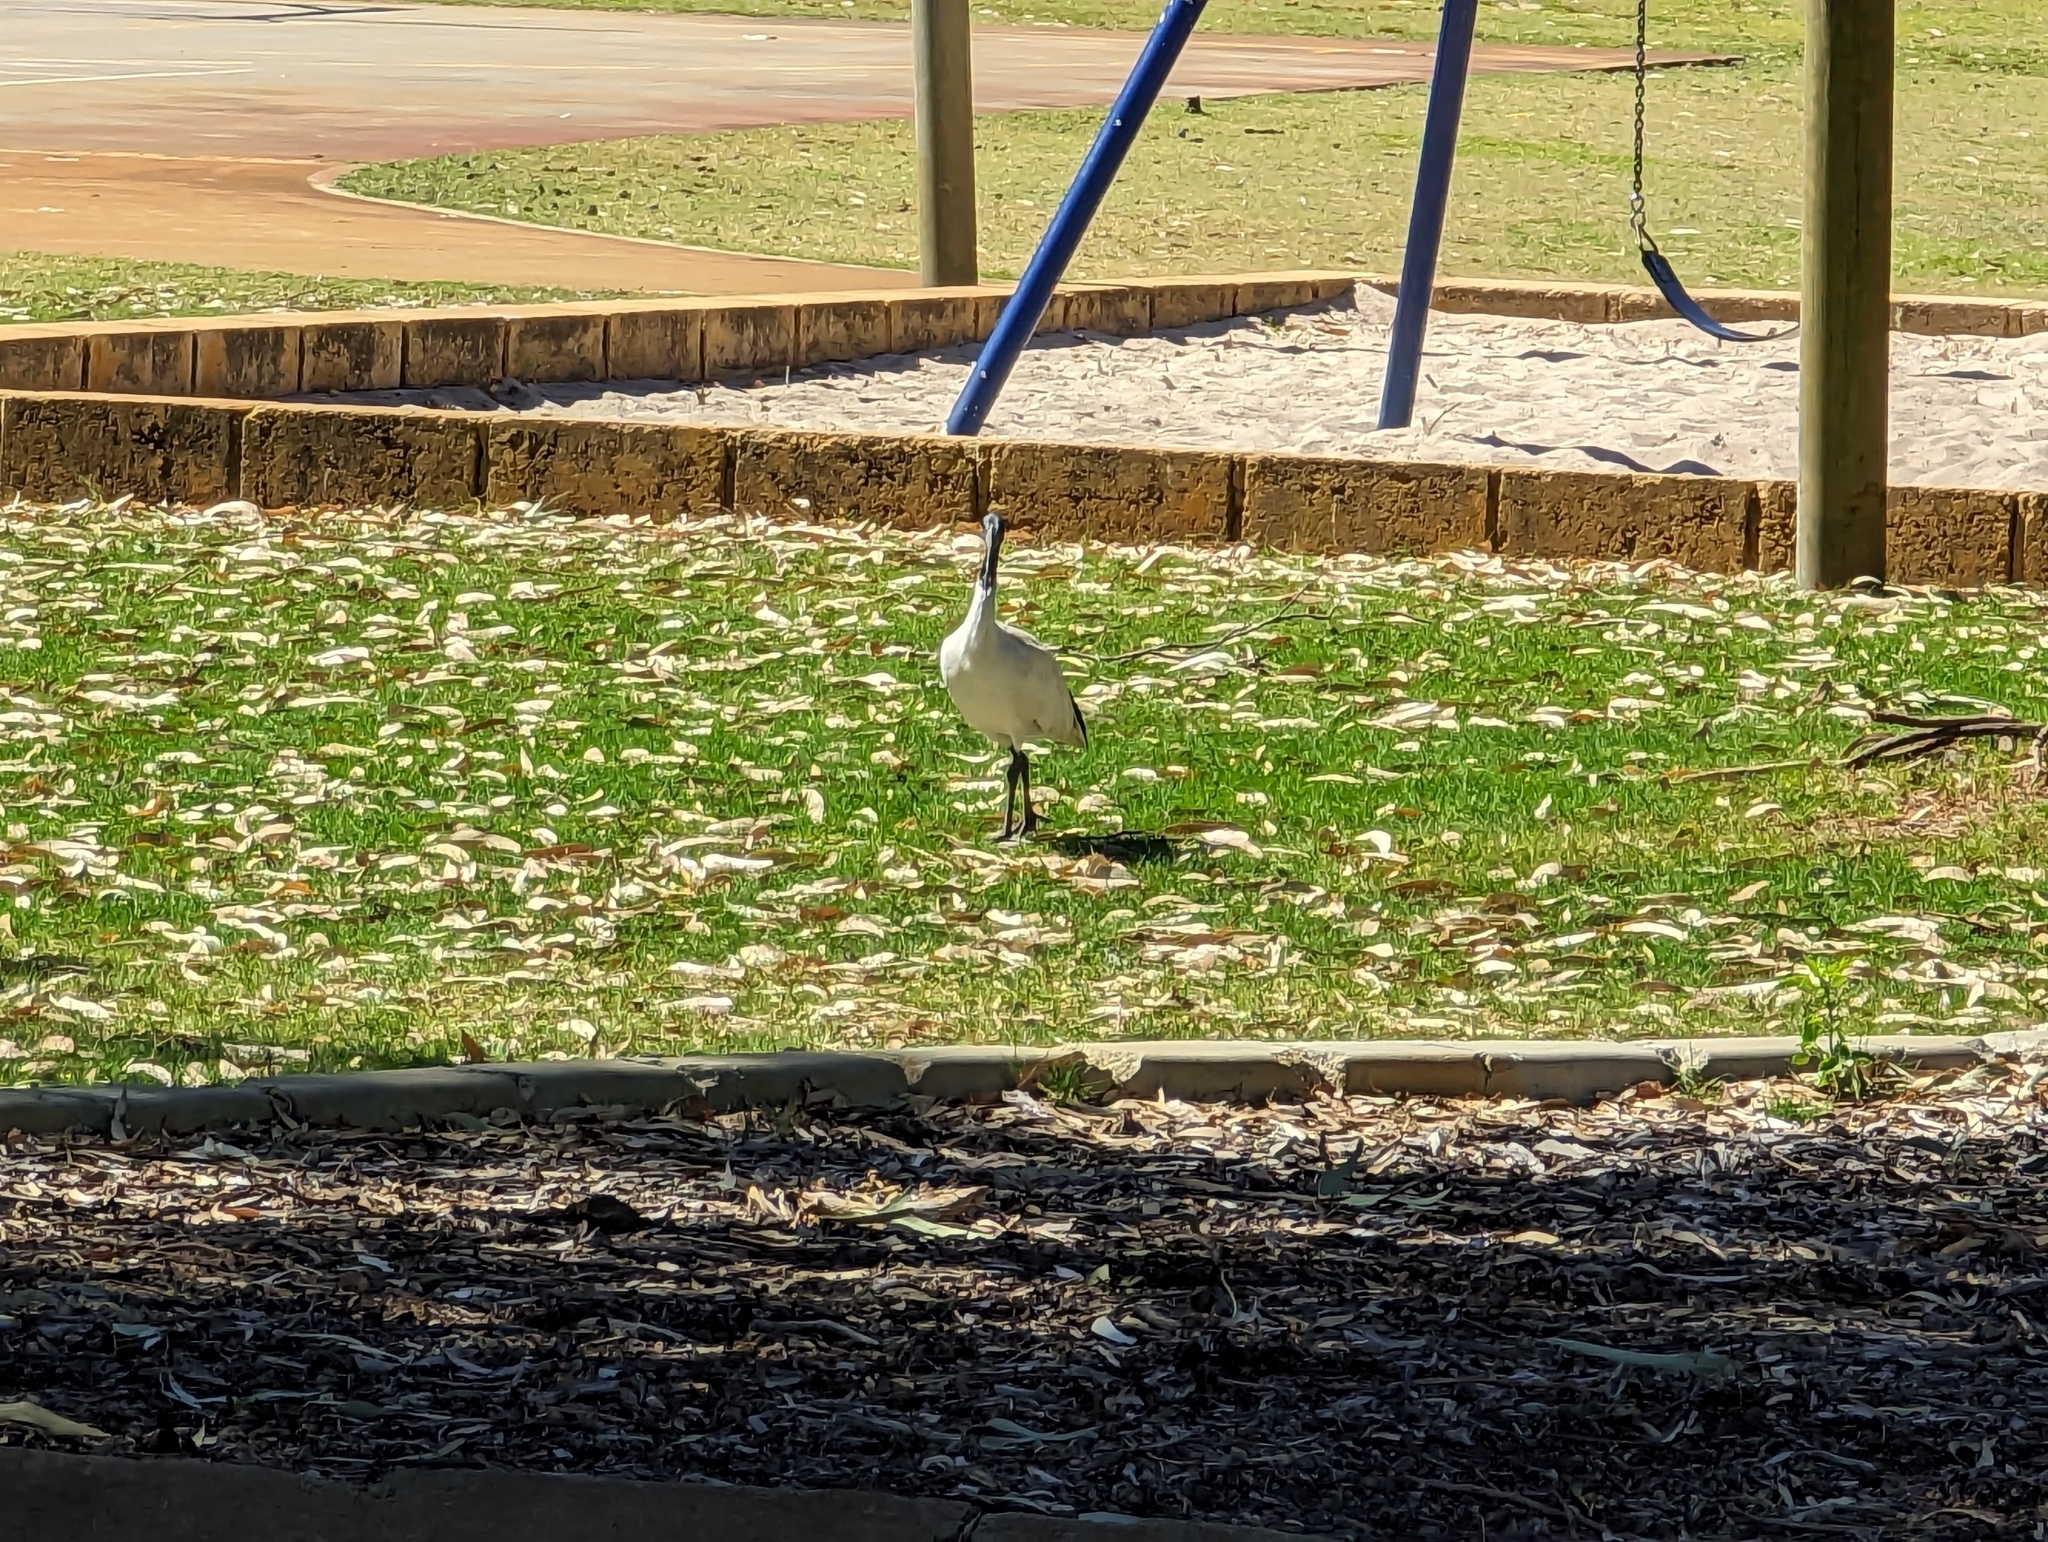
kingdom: Animalia
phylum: Chordata
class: Aves
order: Pelecaniformes
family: Threskiornithidae
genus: Threskiornis
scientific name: Threskiornis molucca
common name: Australian white ibis
